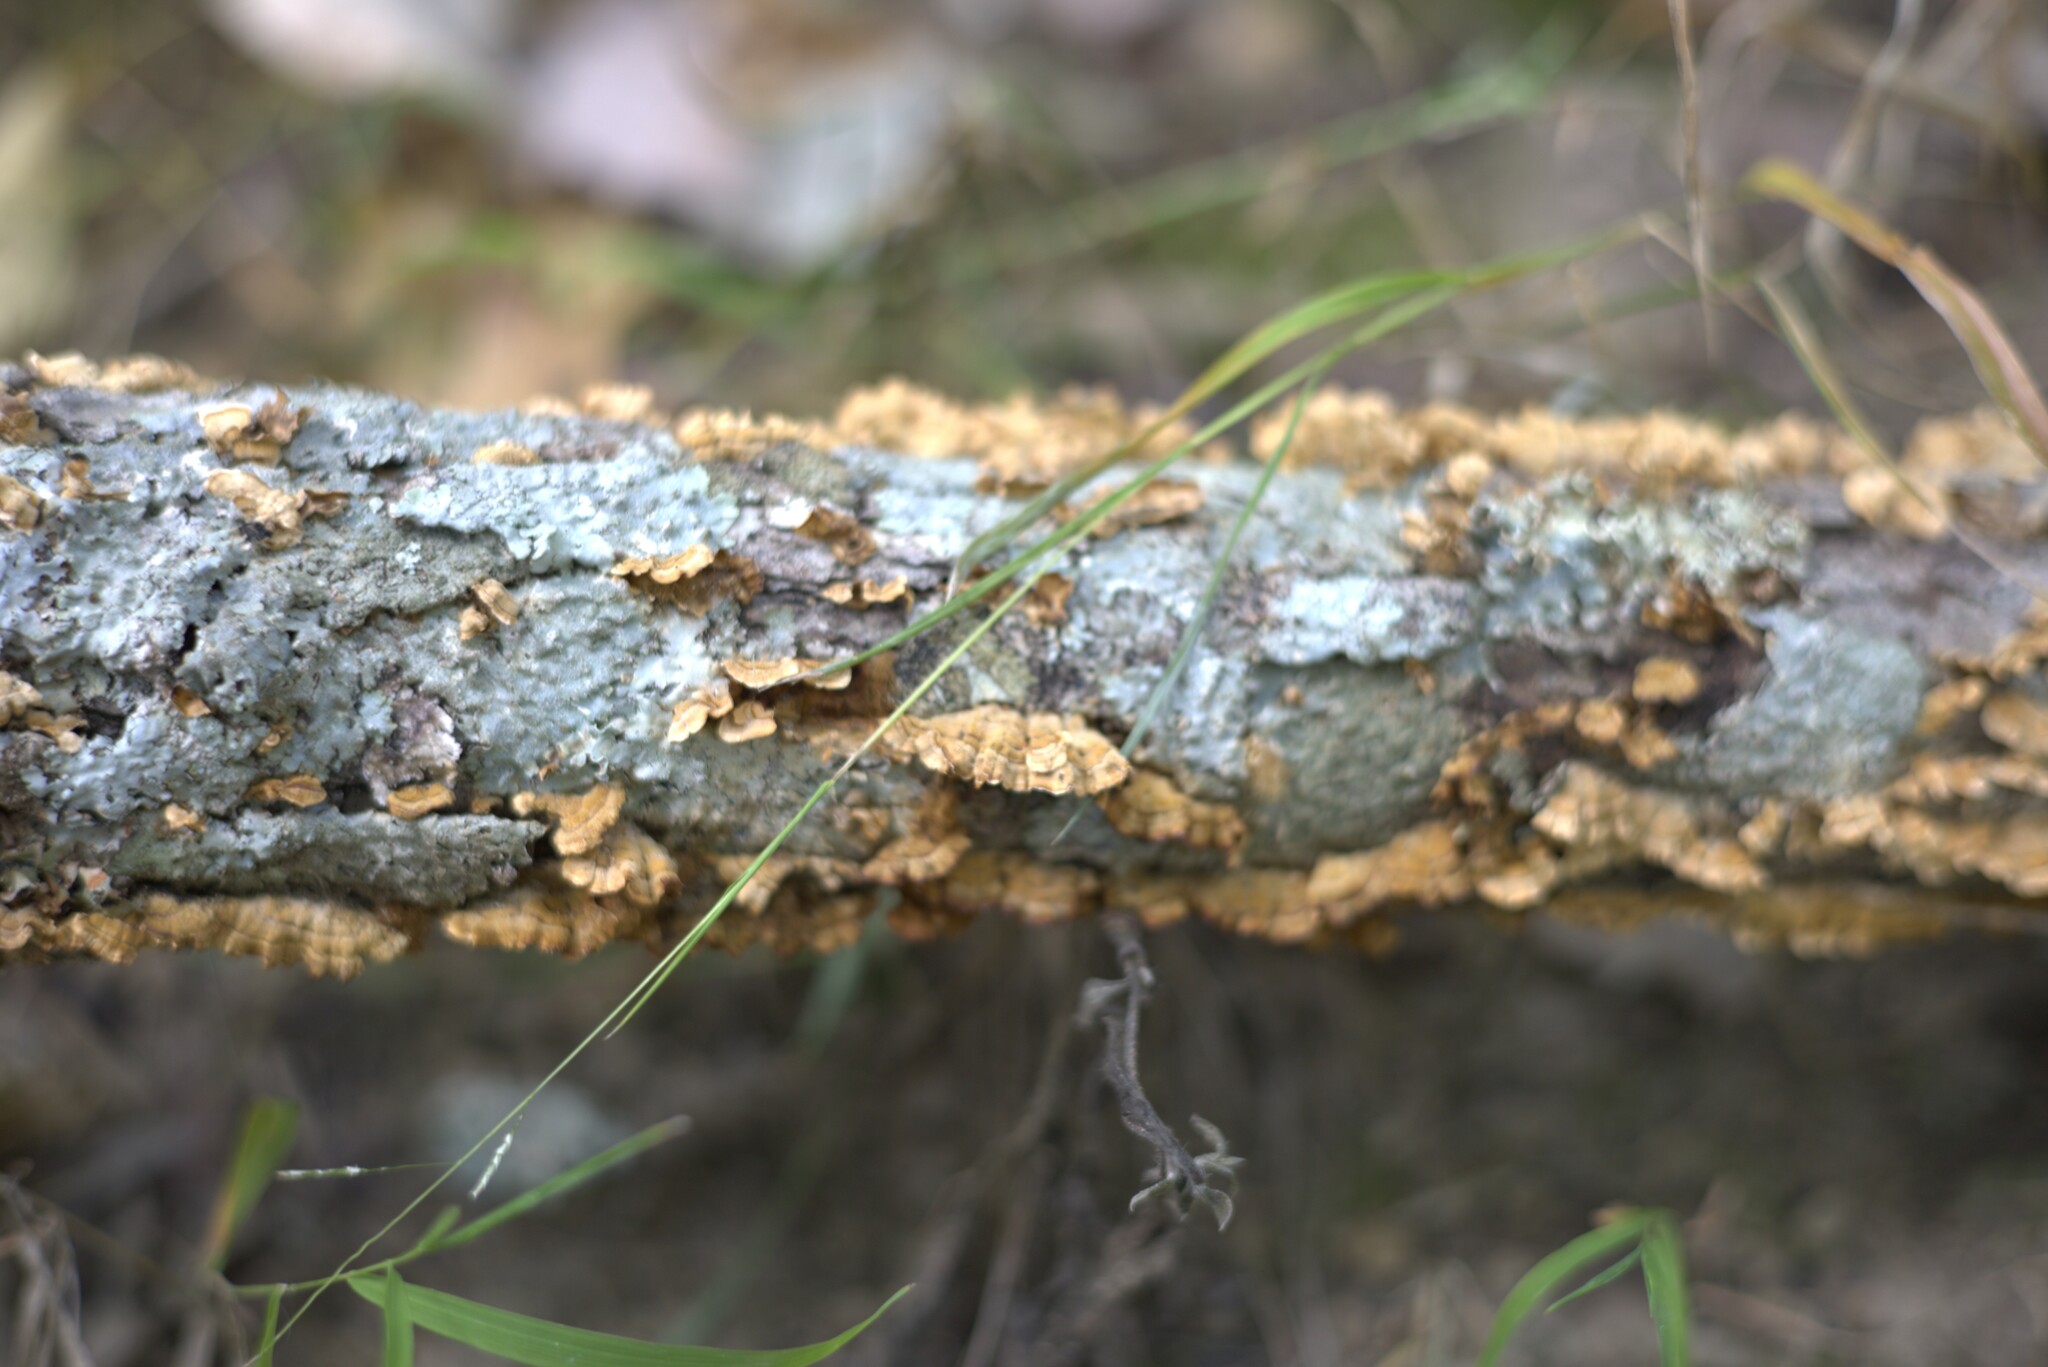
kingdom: Fungi
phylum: Basidiomycota
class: Agaricomycetes
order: Russulales
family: Stereaceae
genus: Stereum
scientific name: Stereum complicatum
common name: Crowded parchment
